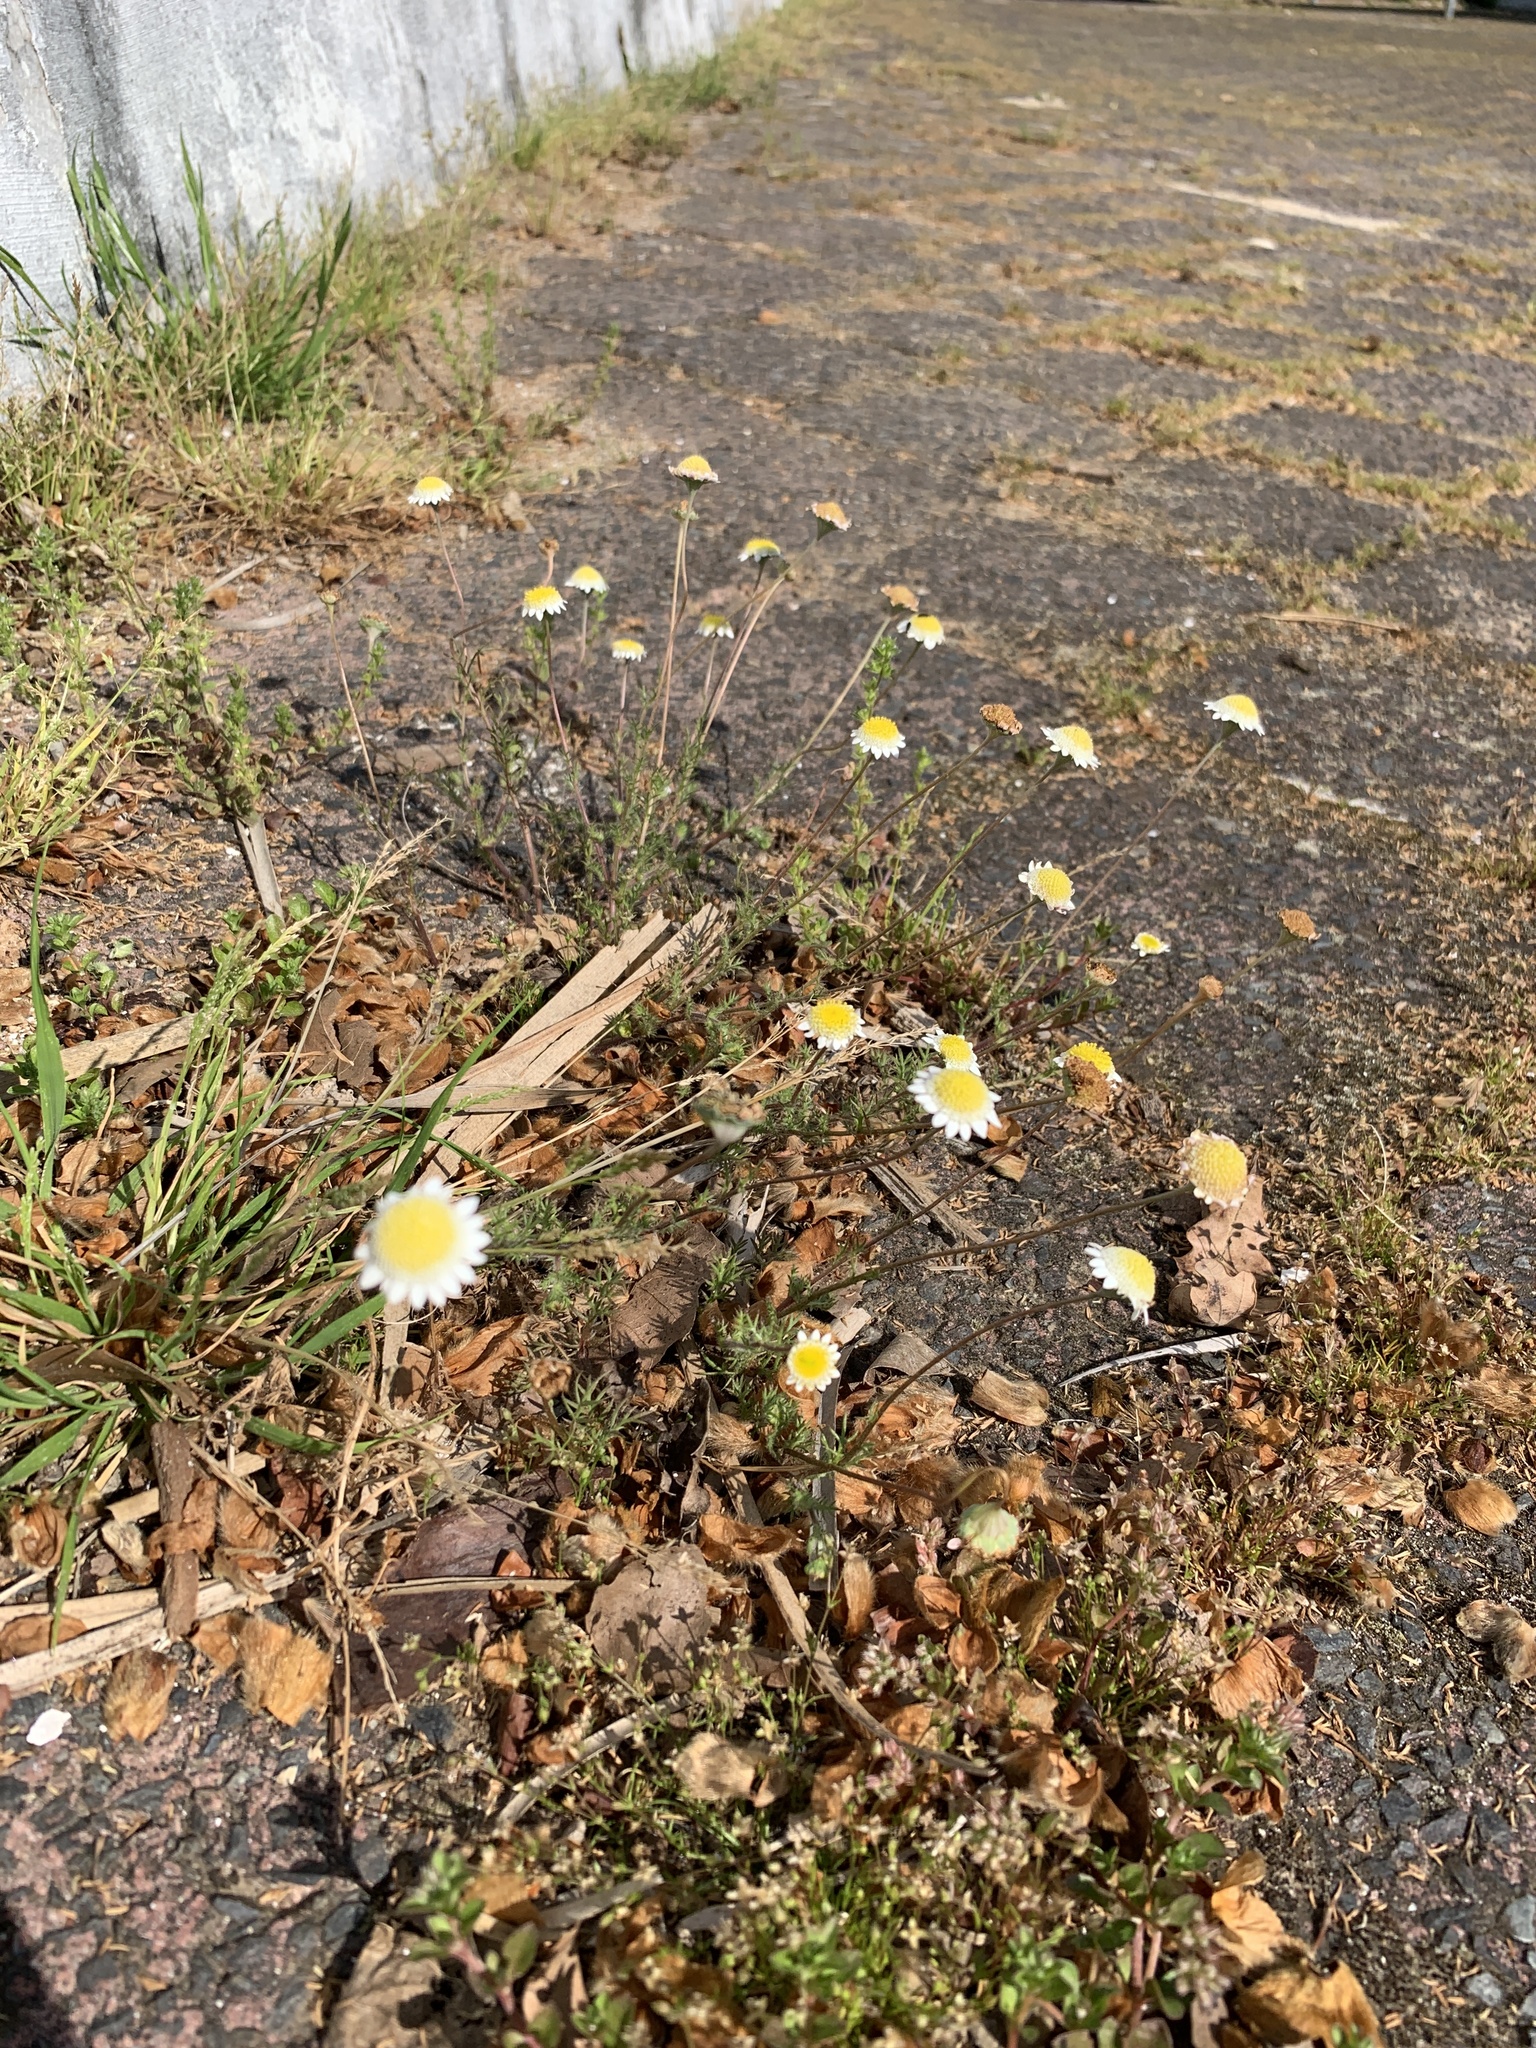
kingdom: Plantae
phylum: Tracheophyta
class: Magnoliopsida
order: Asterales
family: Asteraceae
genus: Cotula
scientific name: Cotula turbinata
